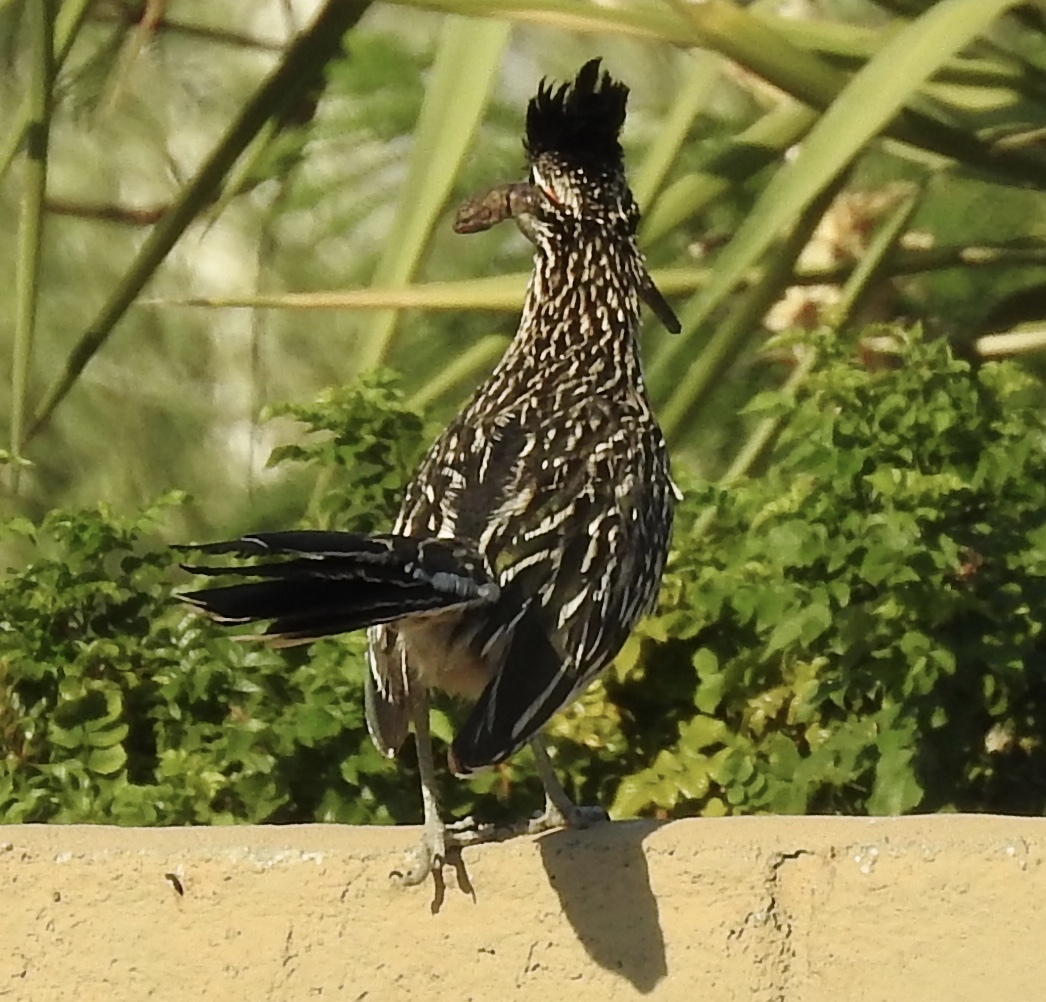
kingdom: Animalia
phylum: Chordata
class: Aves
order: Cuculiformes
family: Cuculidae
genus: Geococcyx
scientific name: Geococcyx californianus
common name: Greater roadrunner
